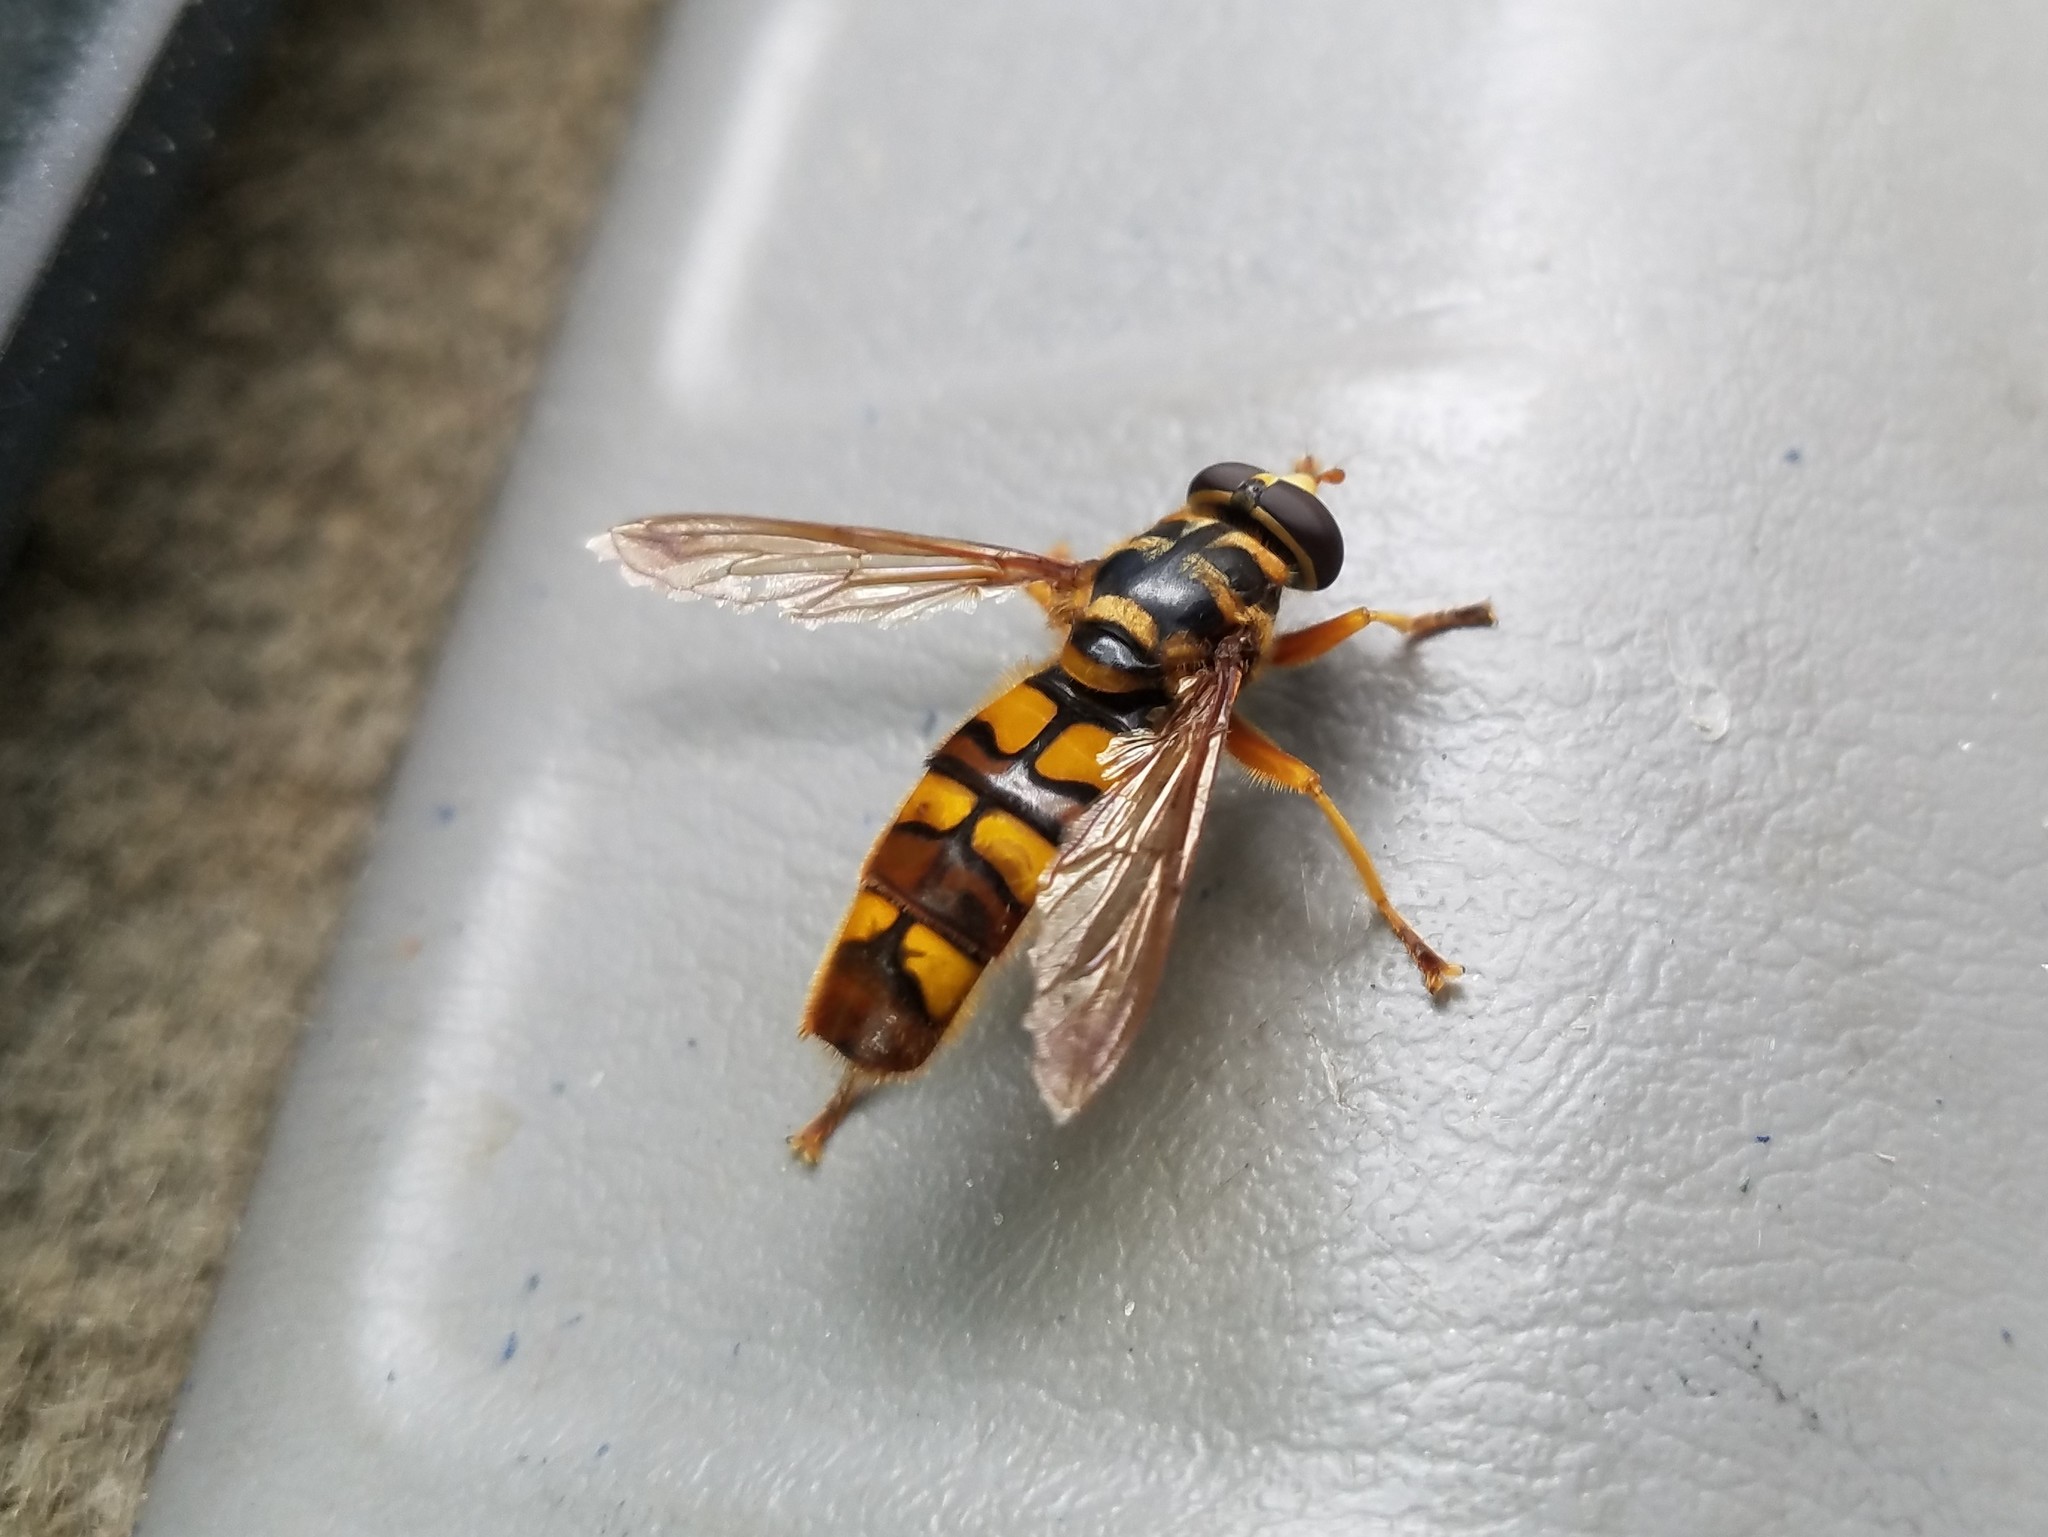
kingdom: Animalia
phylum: Arthropoda
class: Insecta
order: Diptera
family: Syrphidae
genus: Milesia
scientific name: Milesia virginiensis
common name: Virginia giant
